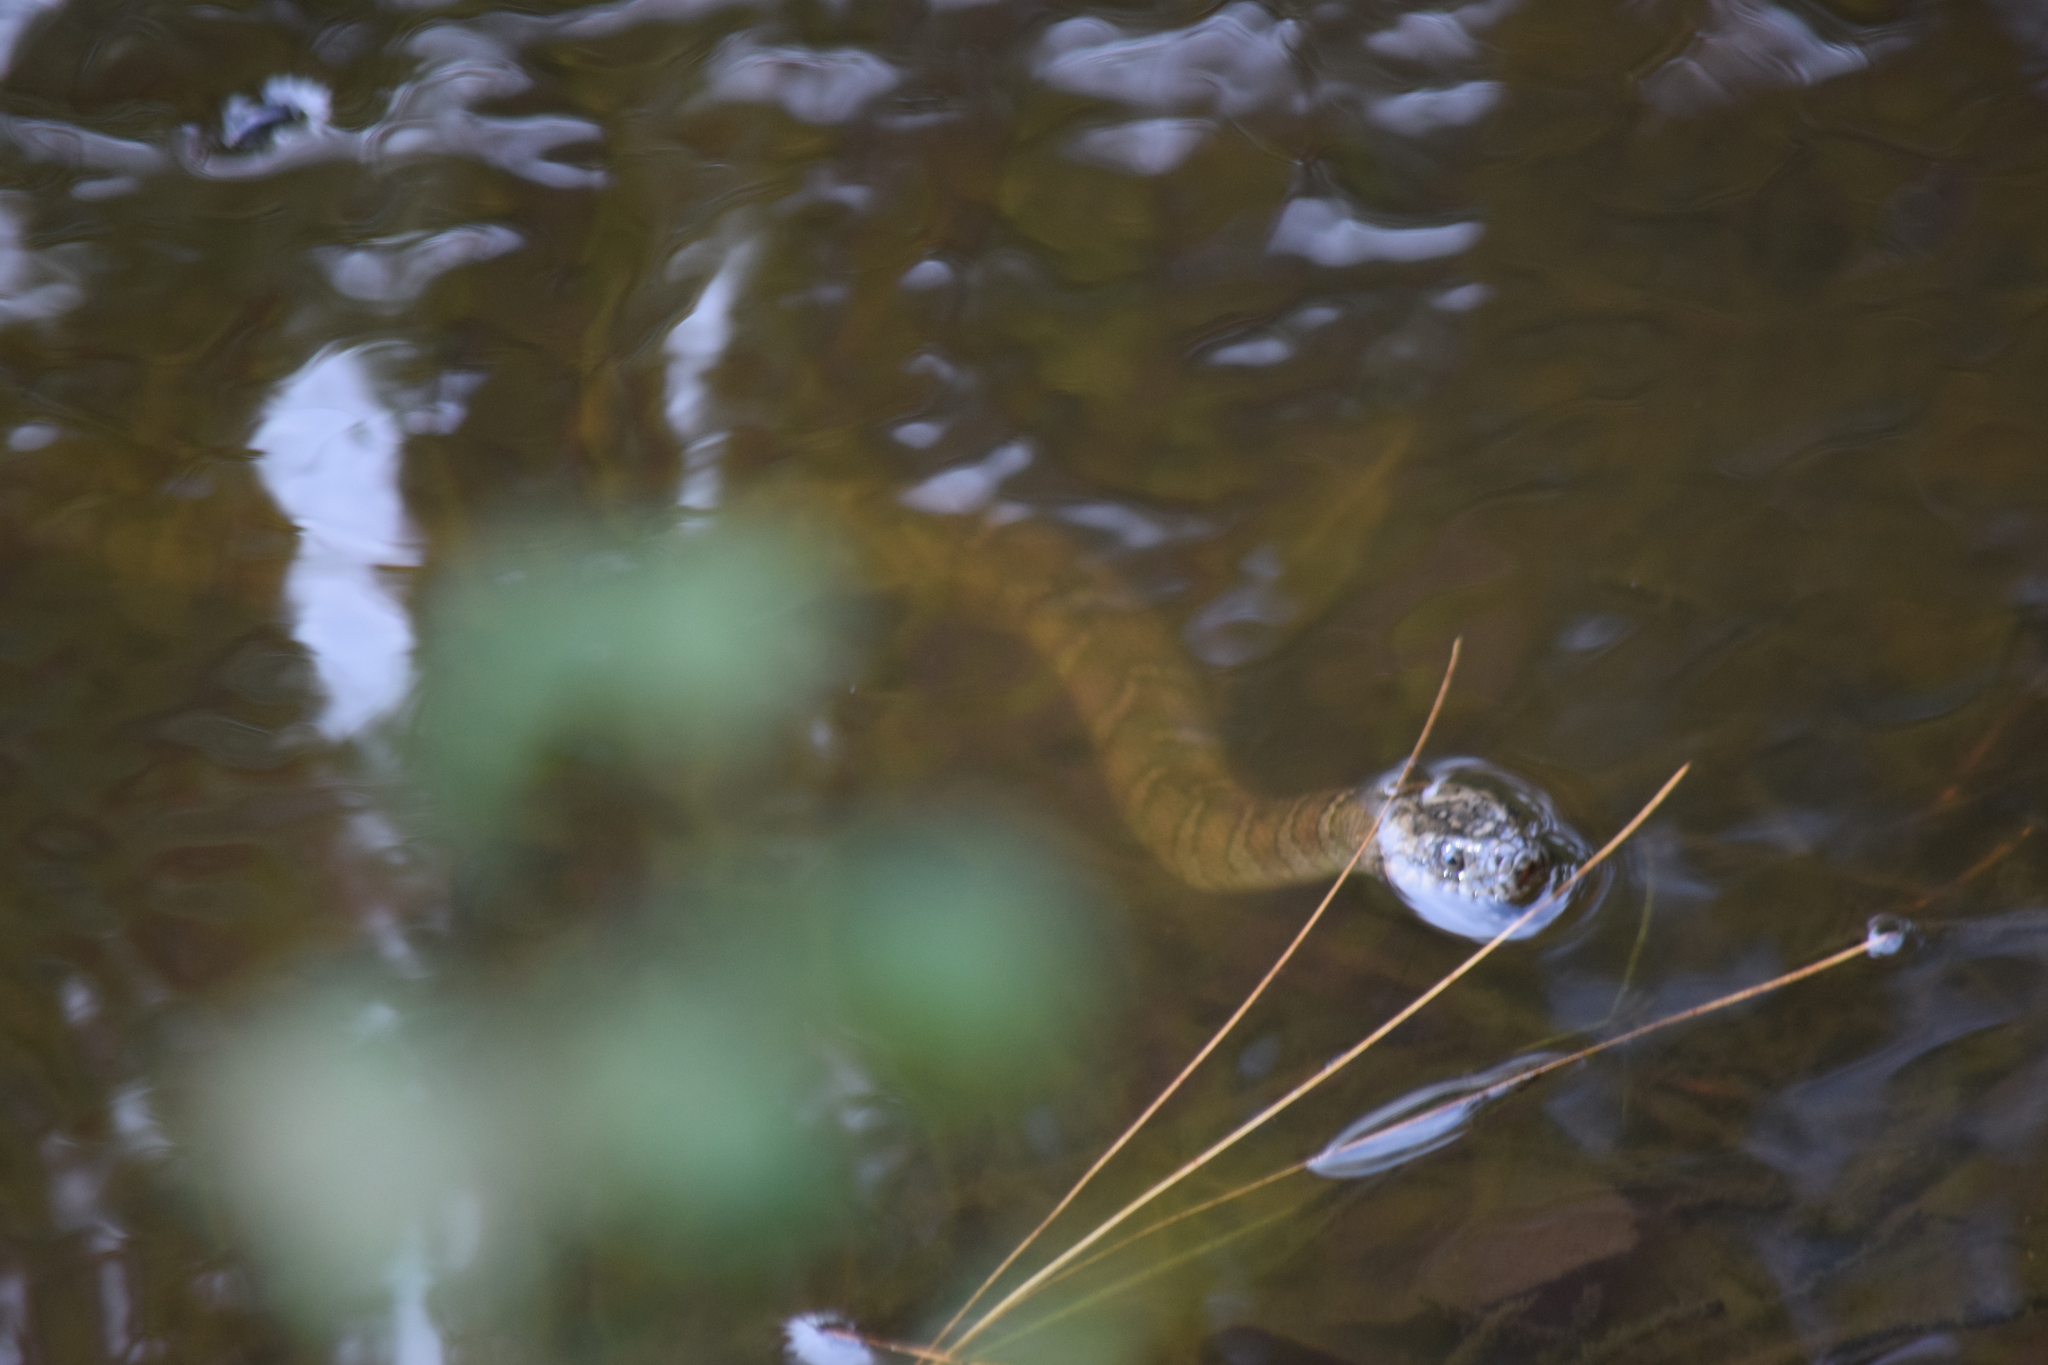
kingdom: Animalia
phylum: Chordata
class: Squamata
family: Colubridae
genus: Nerodia
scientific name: Nerodia sipedon
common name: Northern water snake
